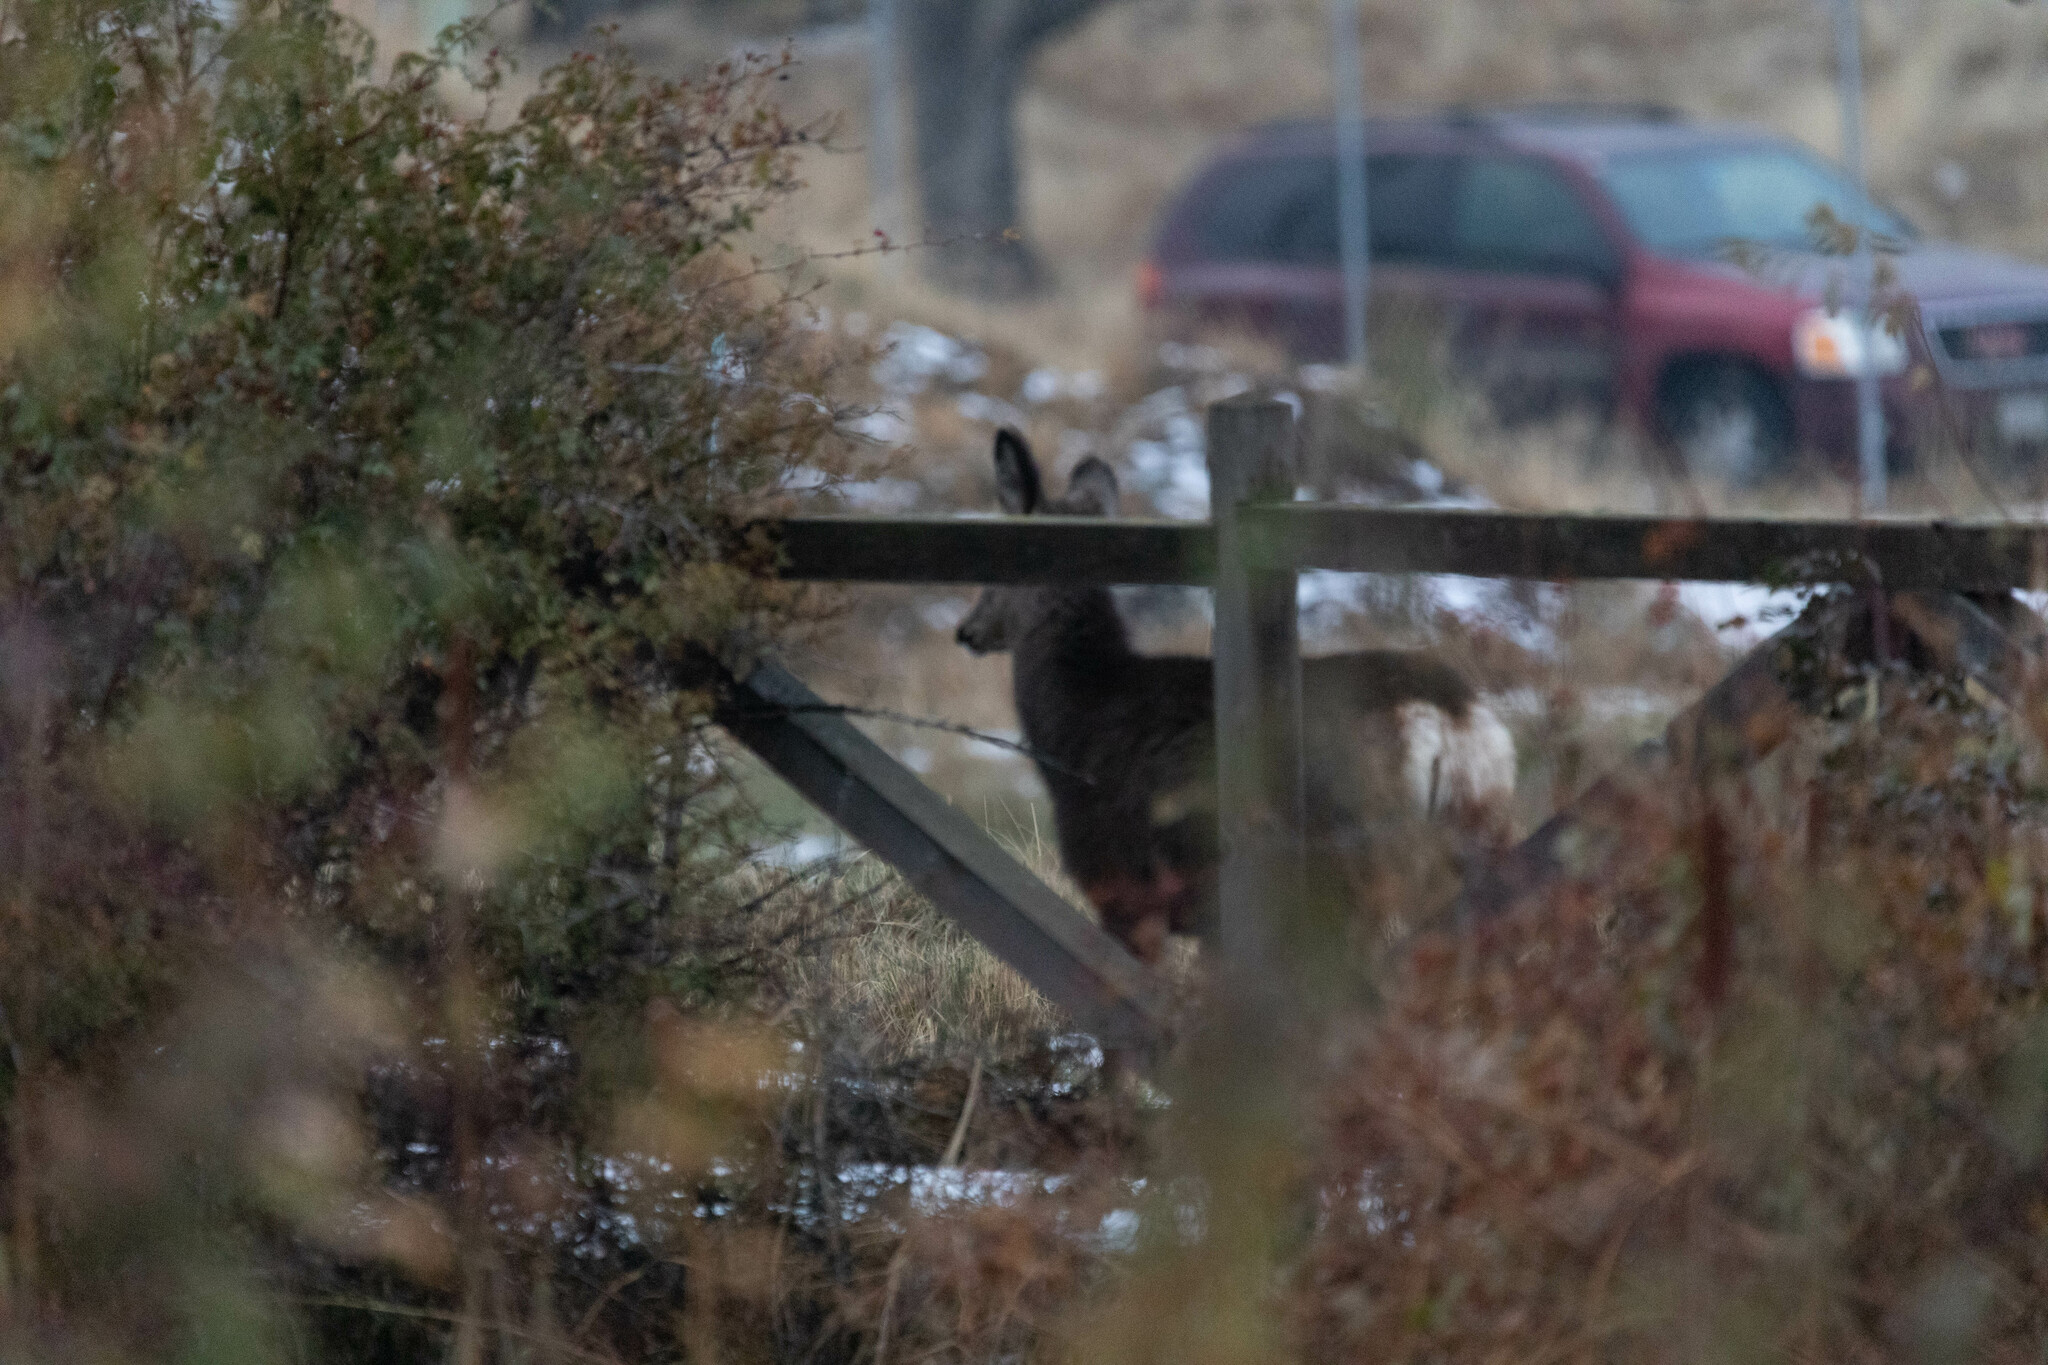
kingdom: Animalia
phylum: Chordata
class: Mammalia
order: Artiodactyla
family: Cervidae
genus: Odocoileus
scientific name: Odocoileus hemionus
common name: Mule deer
